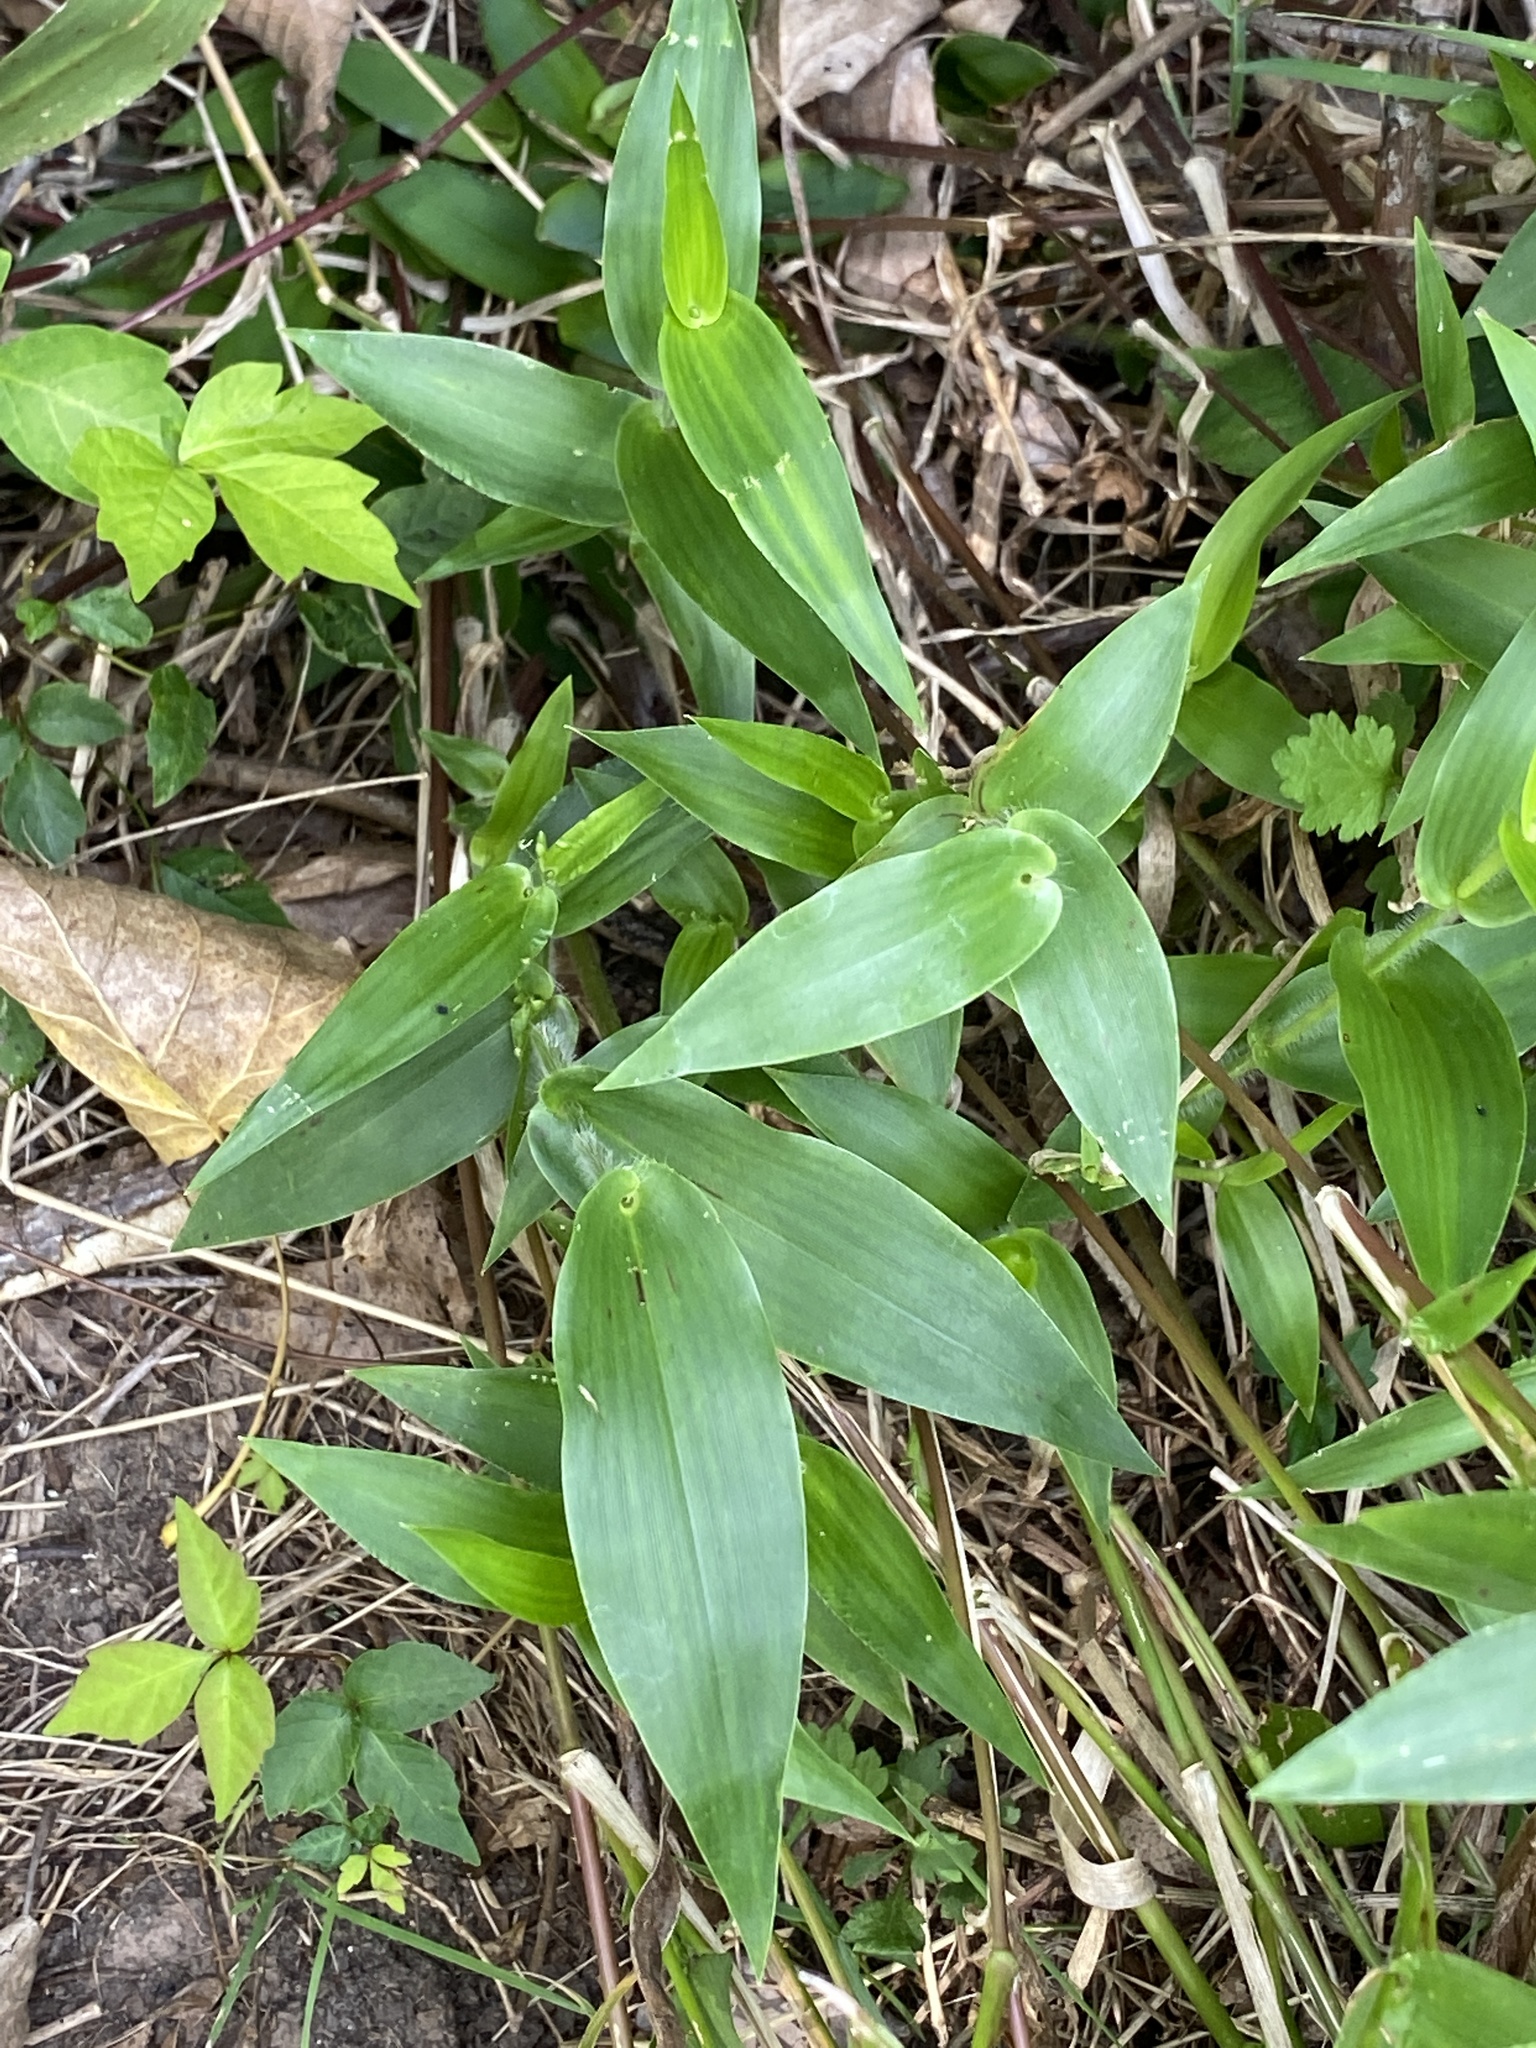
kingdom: Plantae
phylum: Tracheophyta
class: Liliopsida
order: Poales
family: Poaceae
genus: Dichanthelium
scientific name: Dichanthelium clandestinum
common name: Deer-tongue grass
